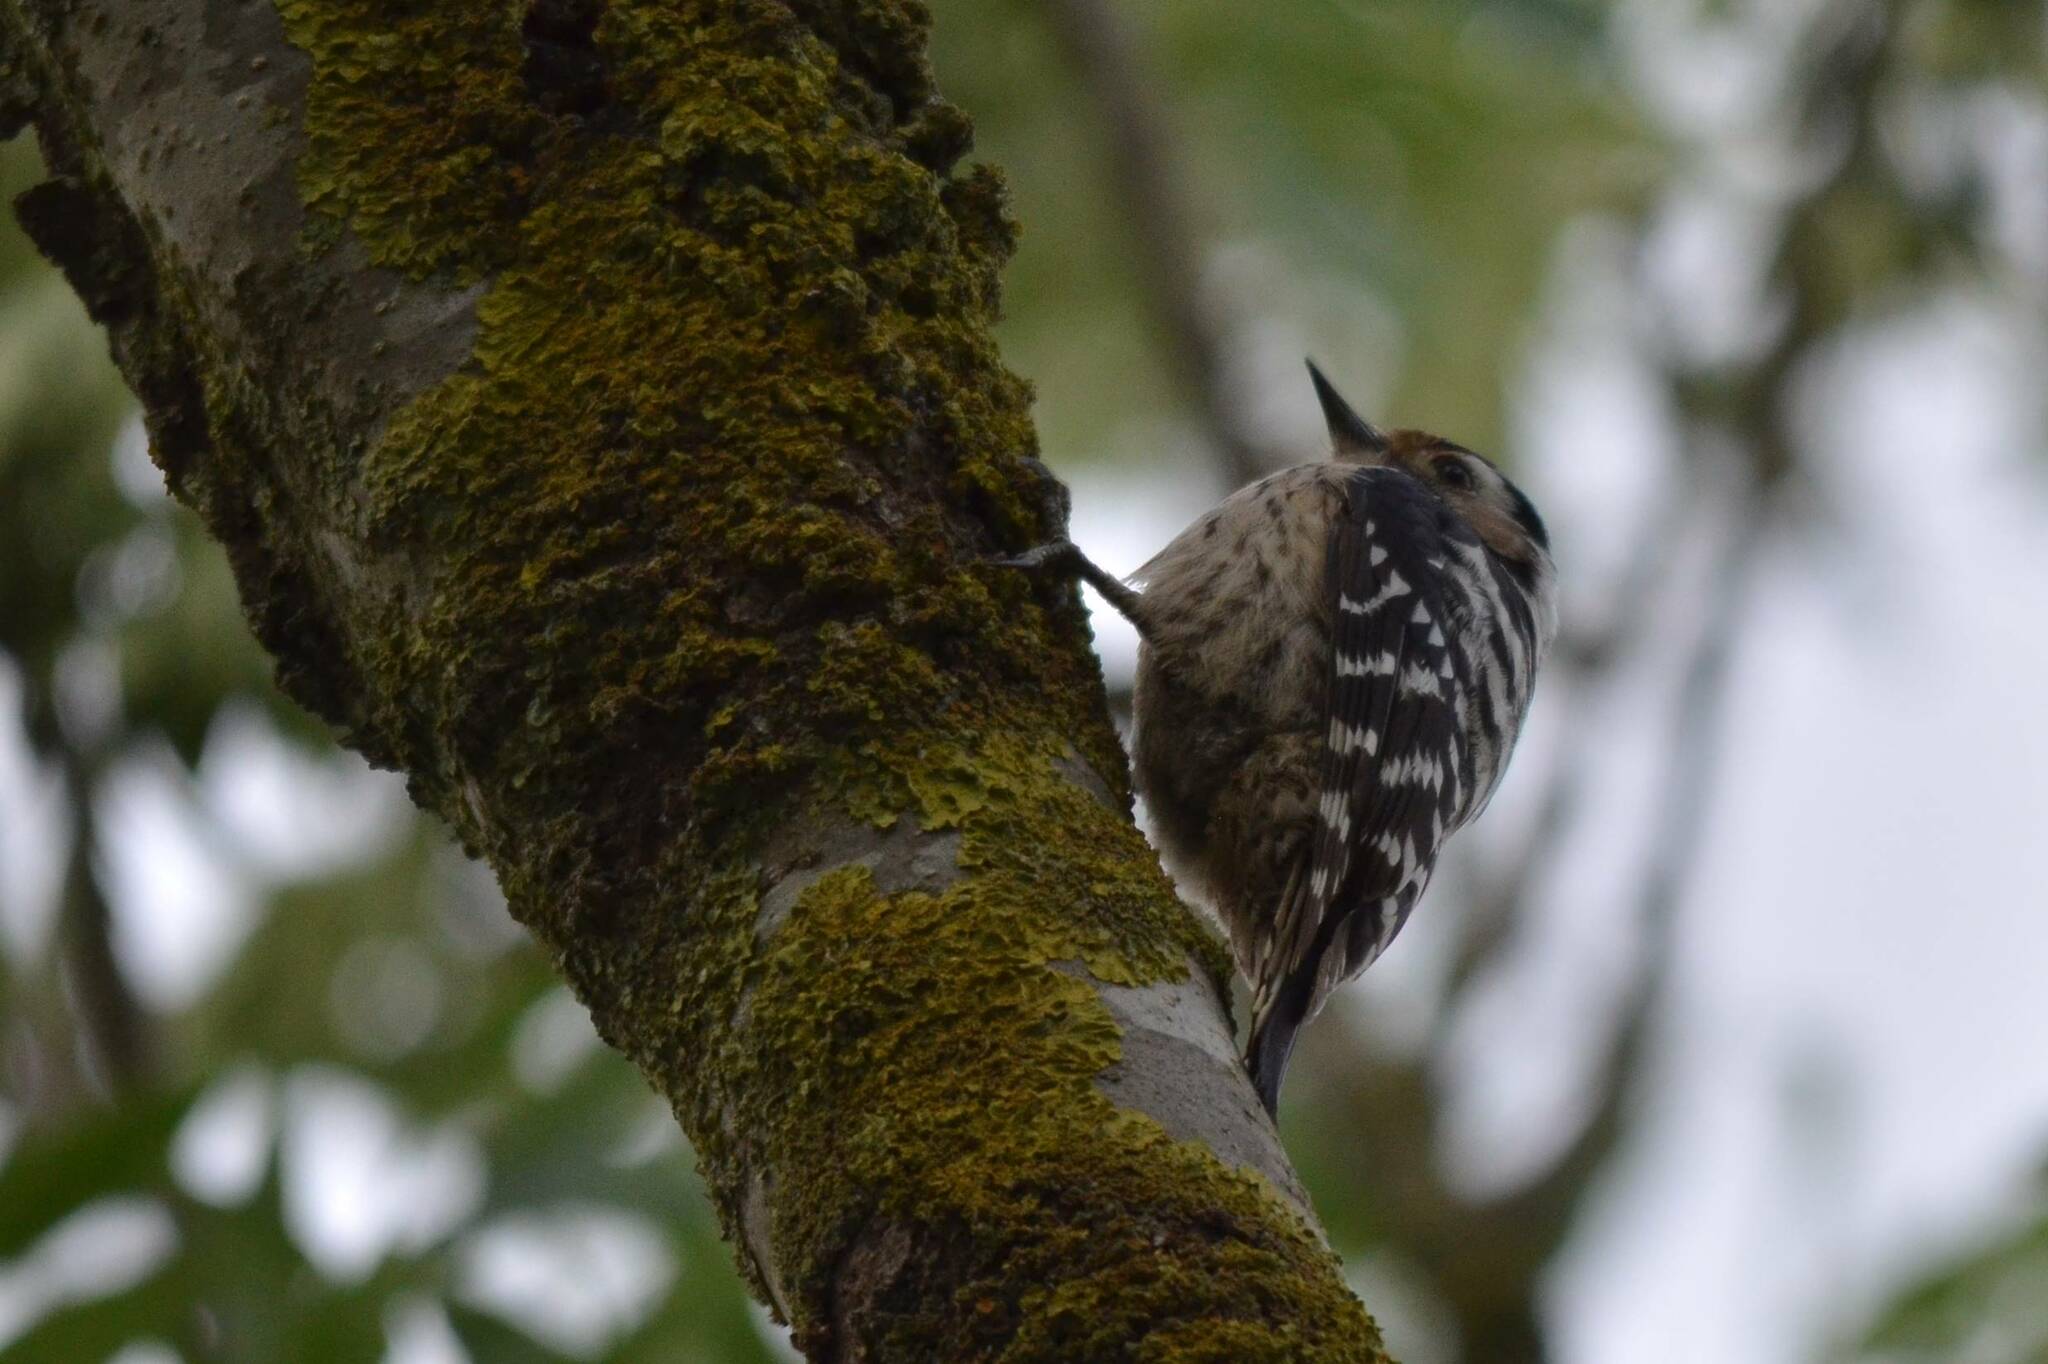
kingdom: Animalia
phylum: Chordata
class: Aves
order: Piciformes
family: Picidae
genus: Dryobates
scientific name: Dryobates minor
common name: Lesser spotted woodpecker
